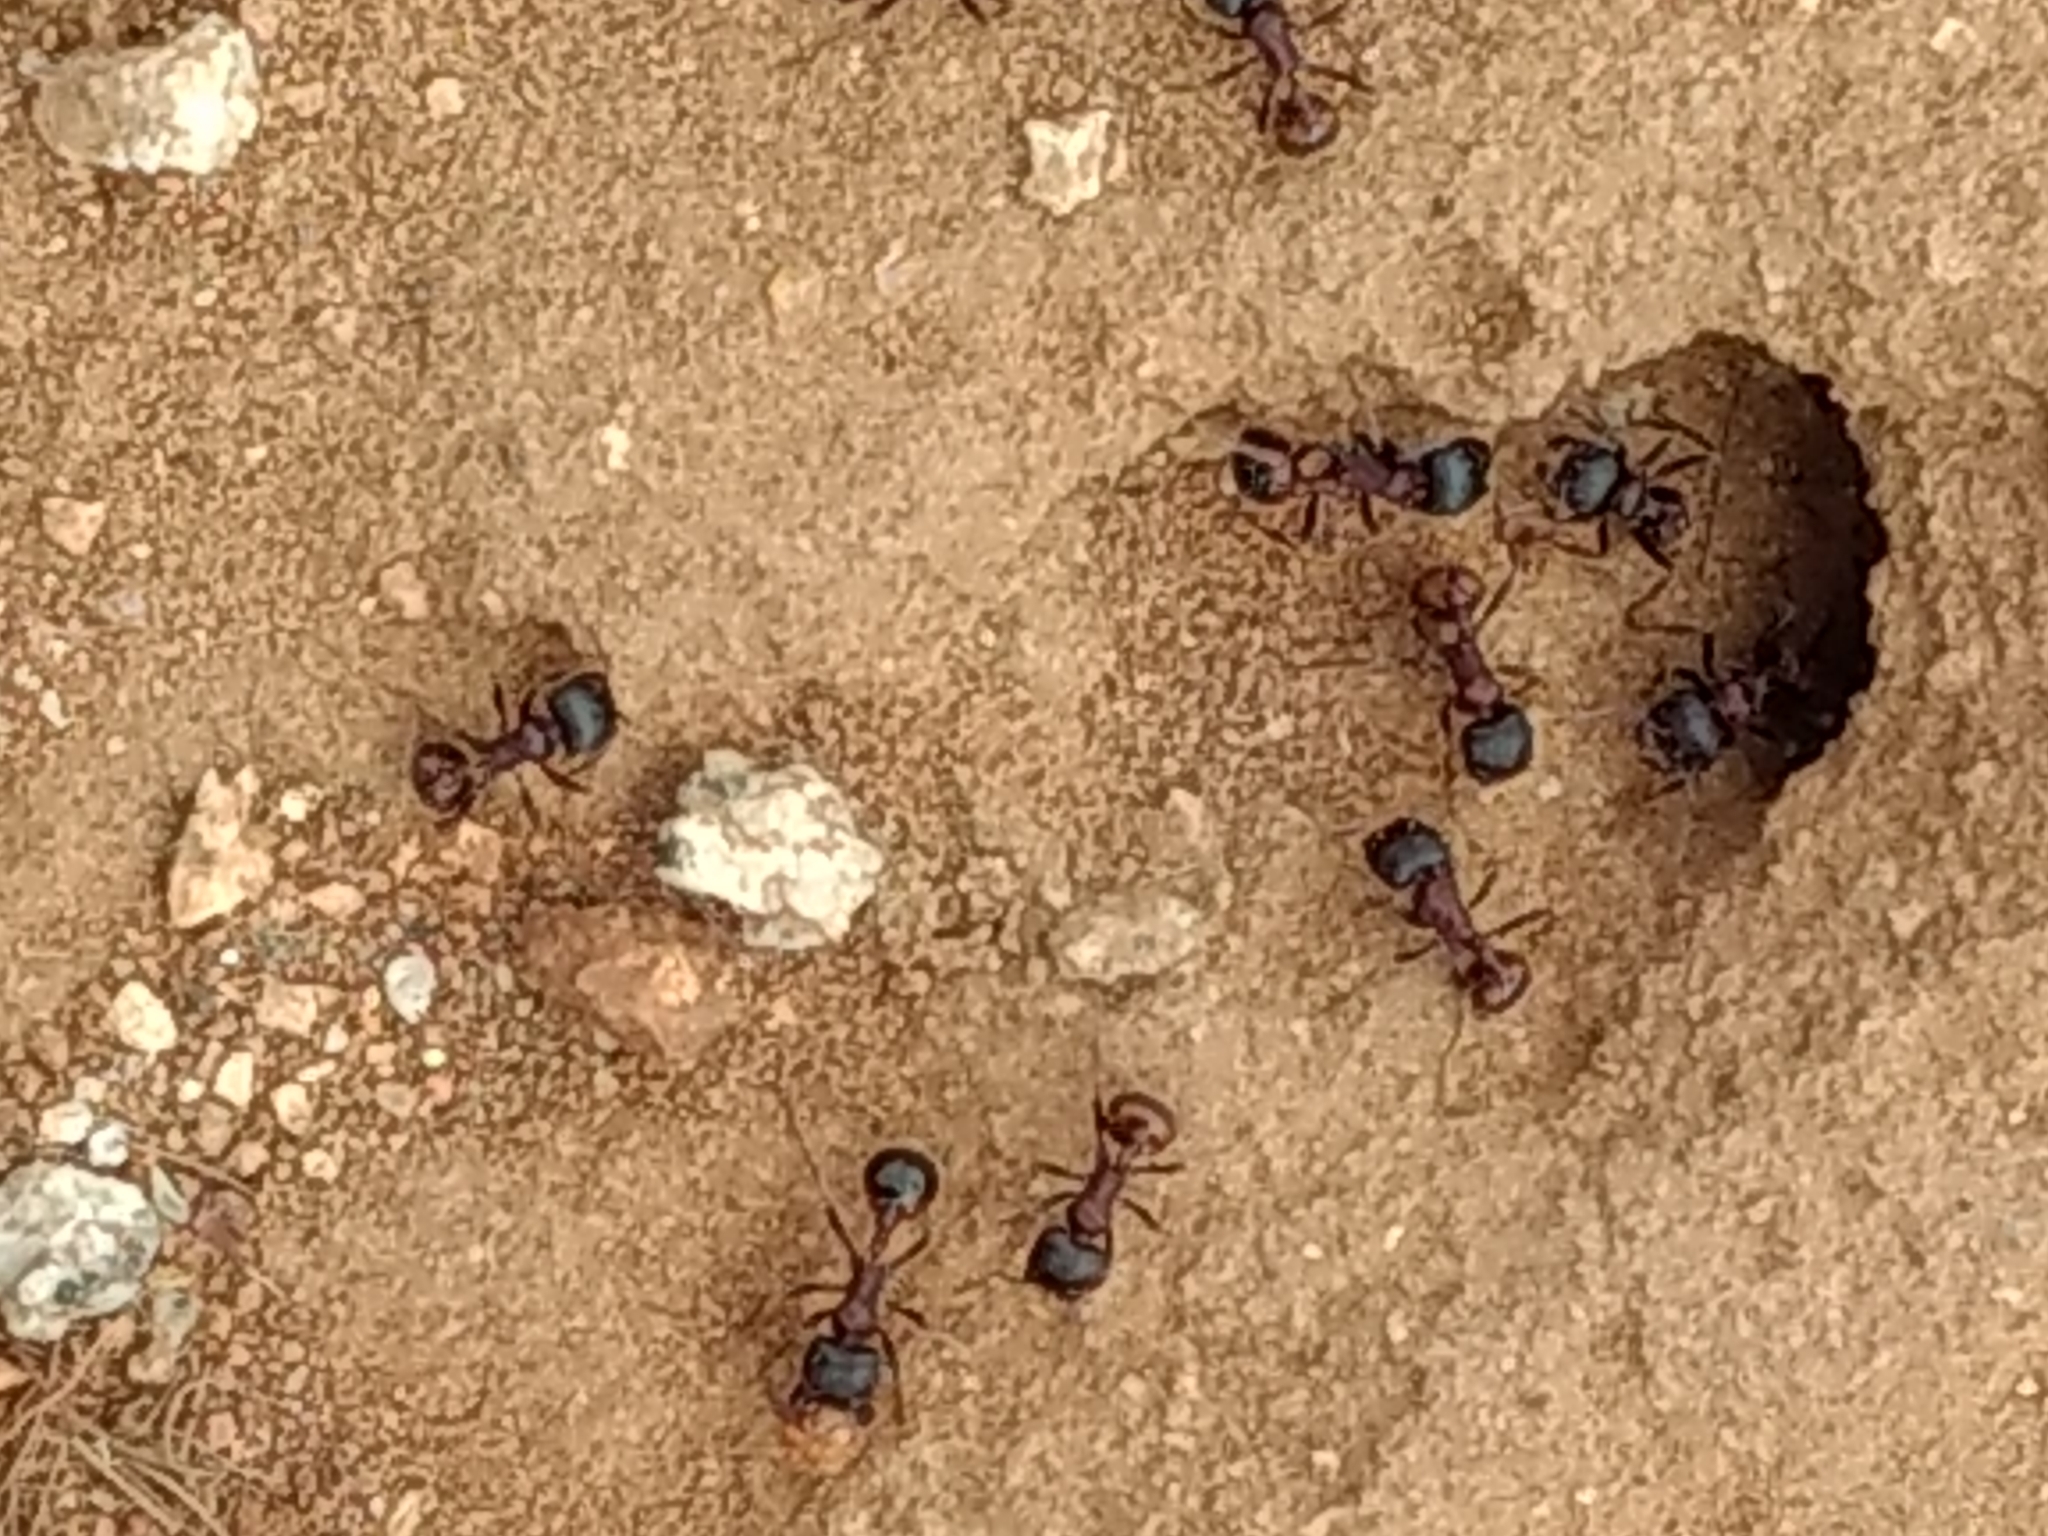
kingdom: Animalia
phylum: Arthropoda
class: Insecta
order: Hymenoptera
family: Formicidae
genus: Pogonomyrmex
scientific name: Pogonomyrmex rugosus
